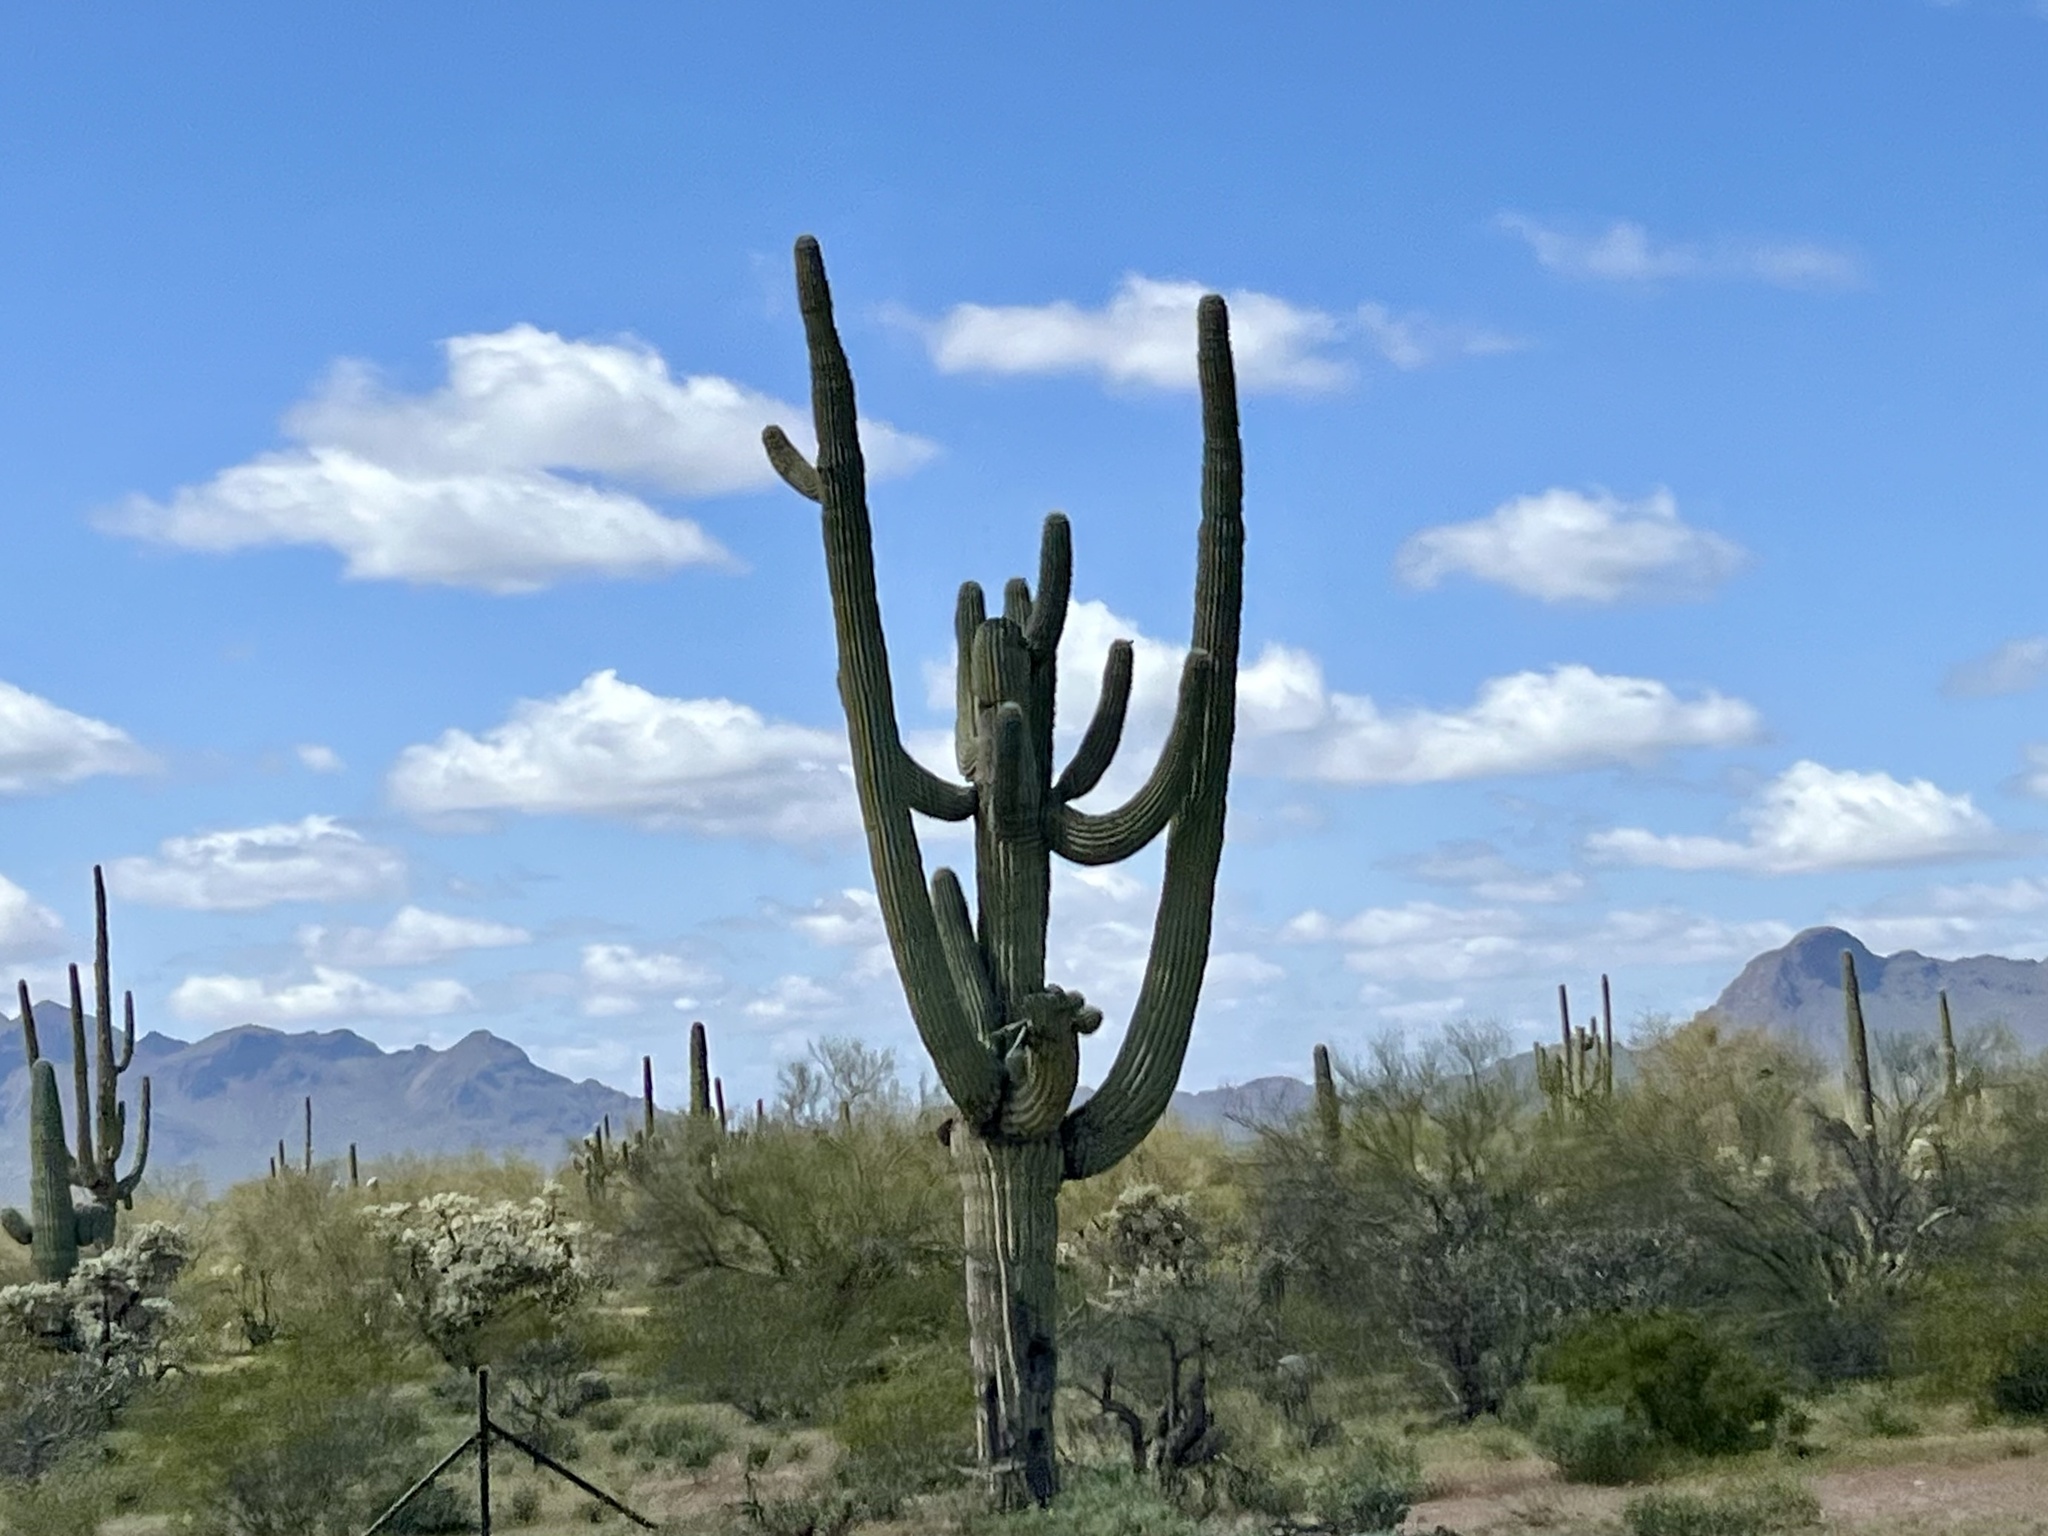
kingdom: Plantae
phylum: Tracheophyta
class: Magnoliopsida
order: Caryophyllales
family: Cactaceae
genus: Carnegiea
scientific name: Carnegiea gigantea
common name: Saguaro
